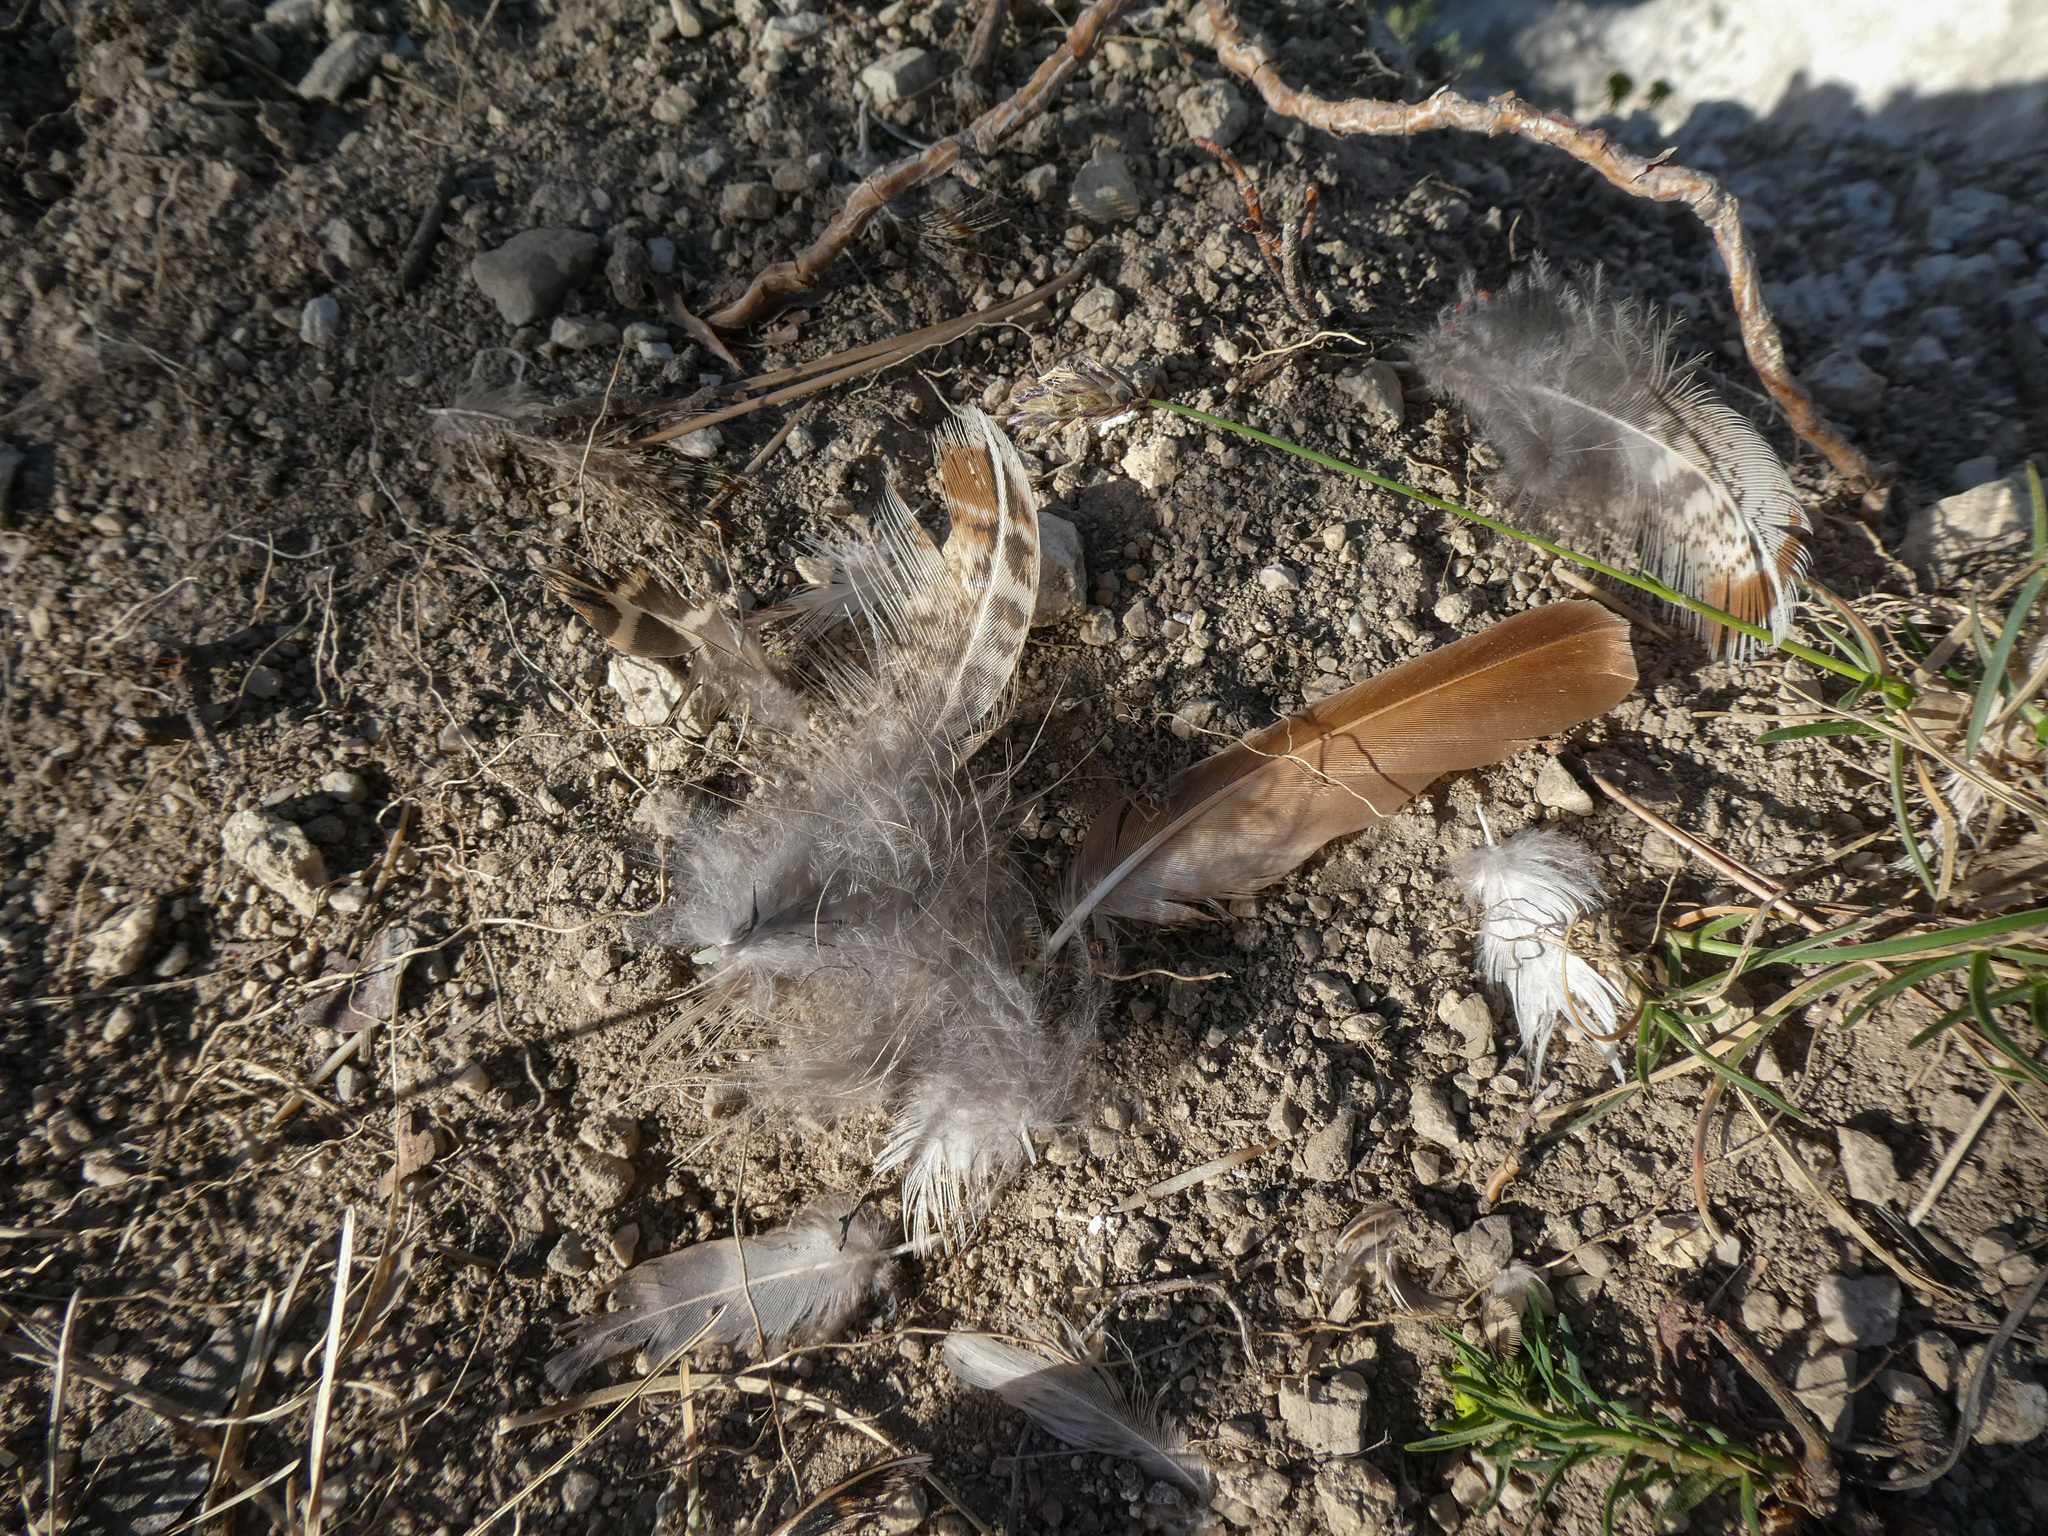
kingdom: Animalia
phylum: Chordata
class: Aves
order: Galliformes
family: Phasianidae
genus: Perdix
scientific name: Perdix perdix
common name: Grey partridge
